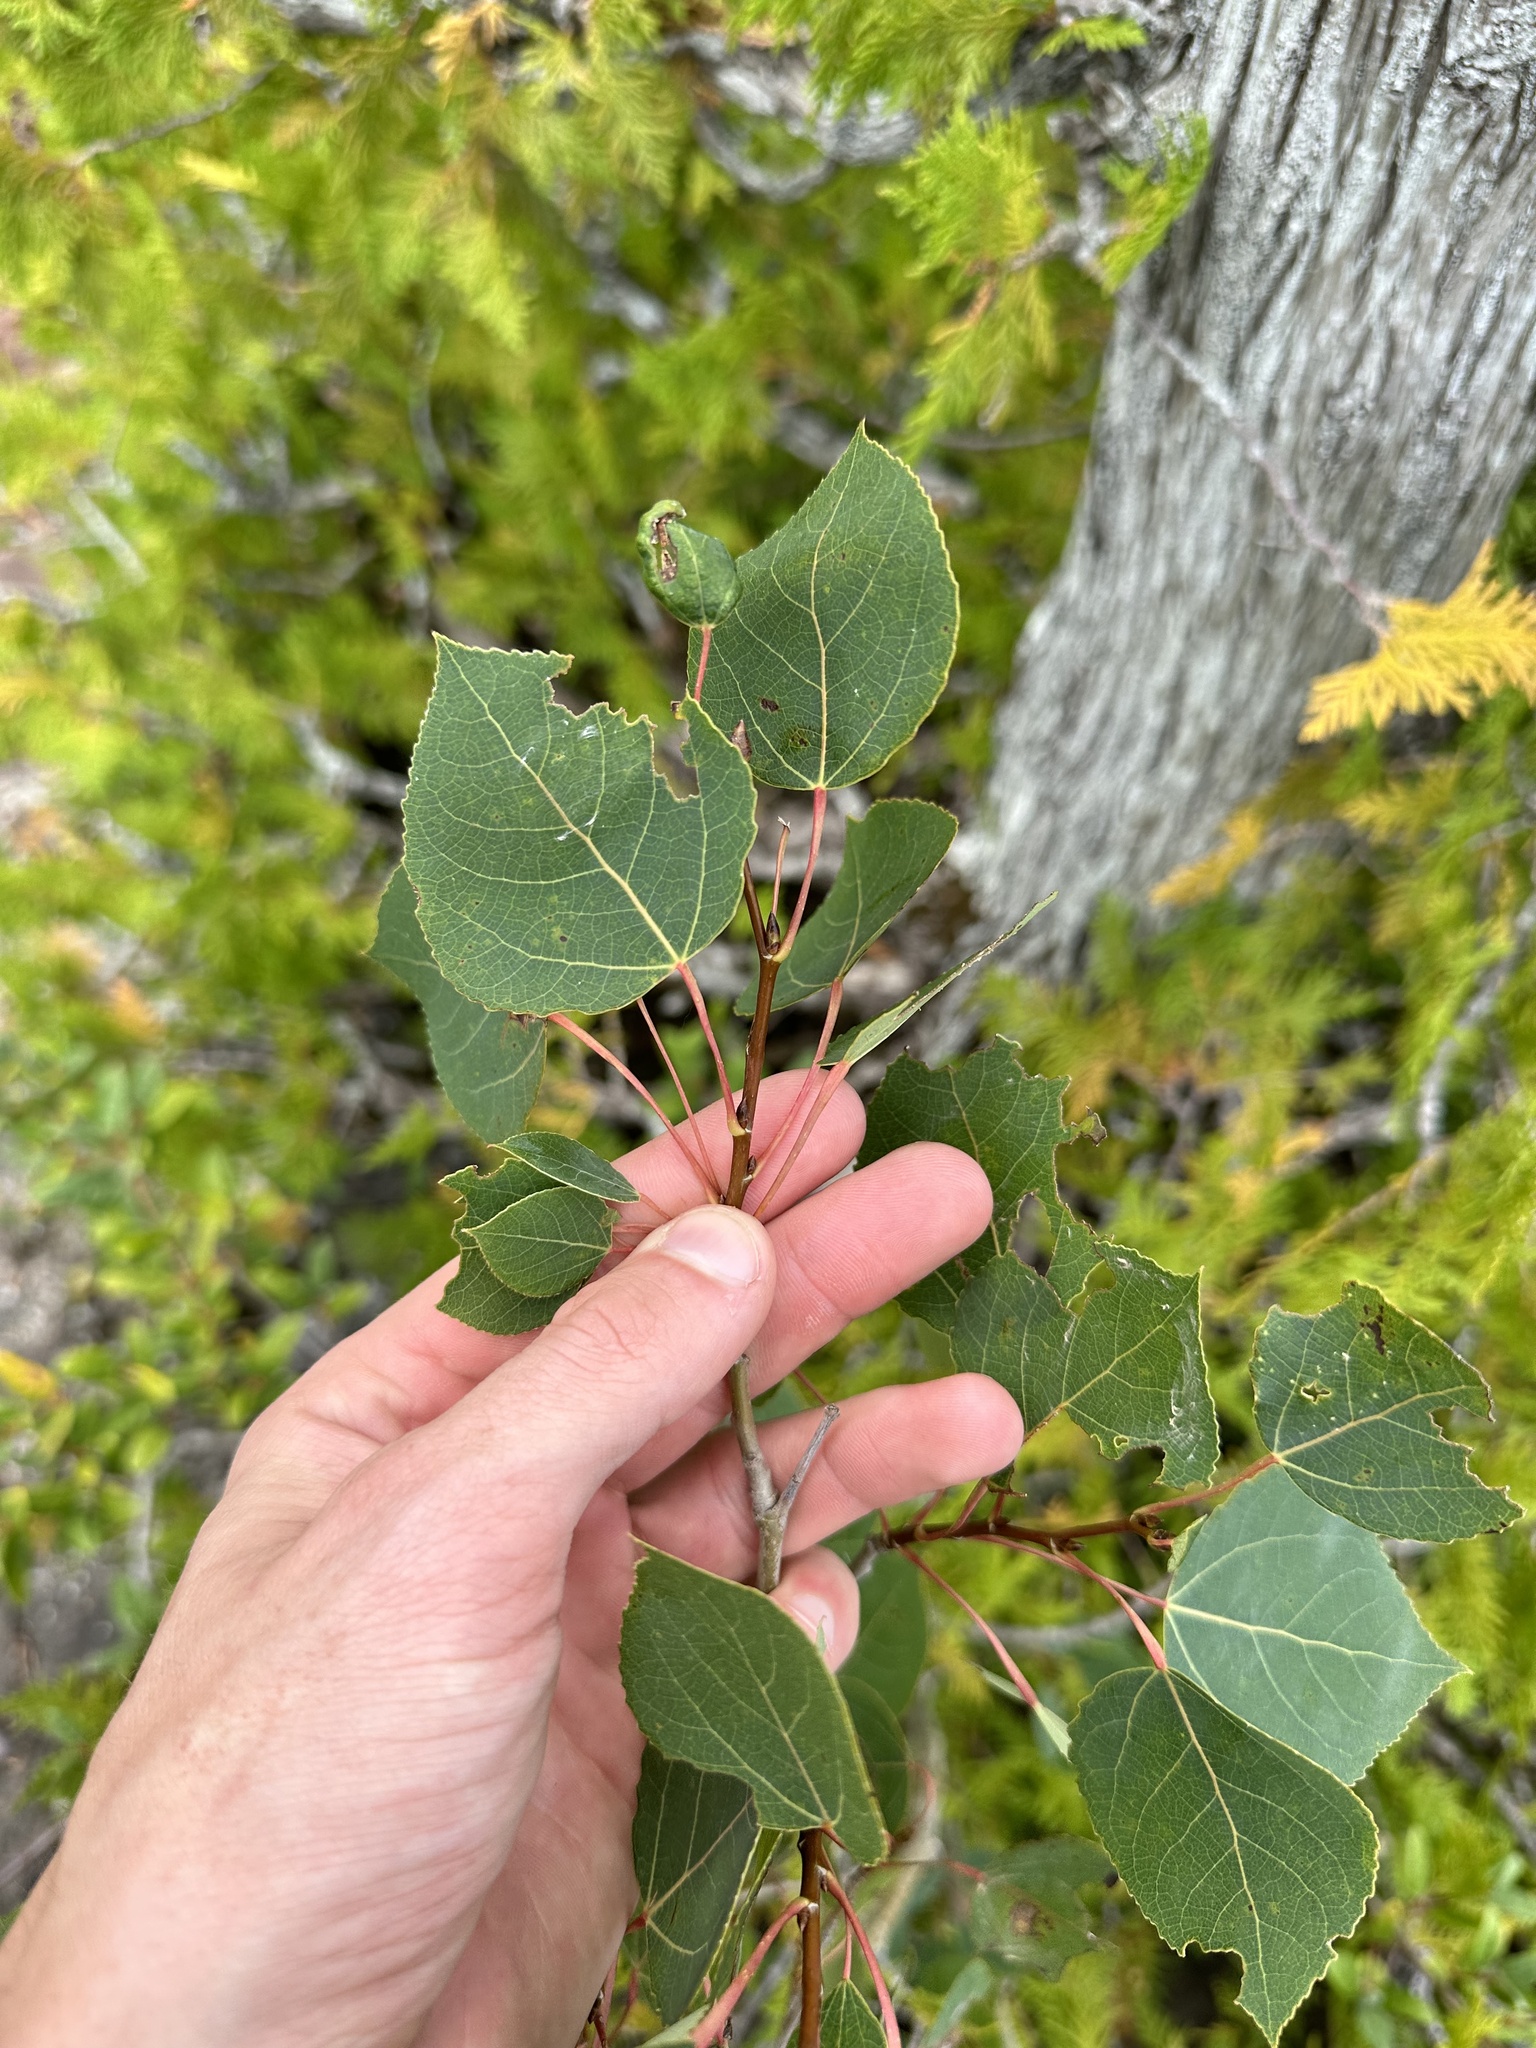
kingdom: Plantae
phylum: Tracheophyta
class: Magnoliopsida
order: Malpighiales
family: Salicaceae
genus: Populus
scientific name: Populus tremuloides
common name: Quaking aspen
